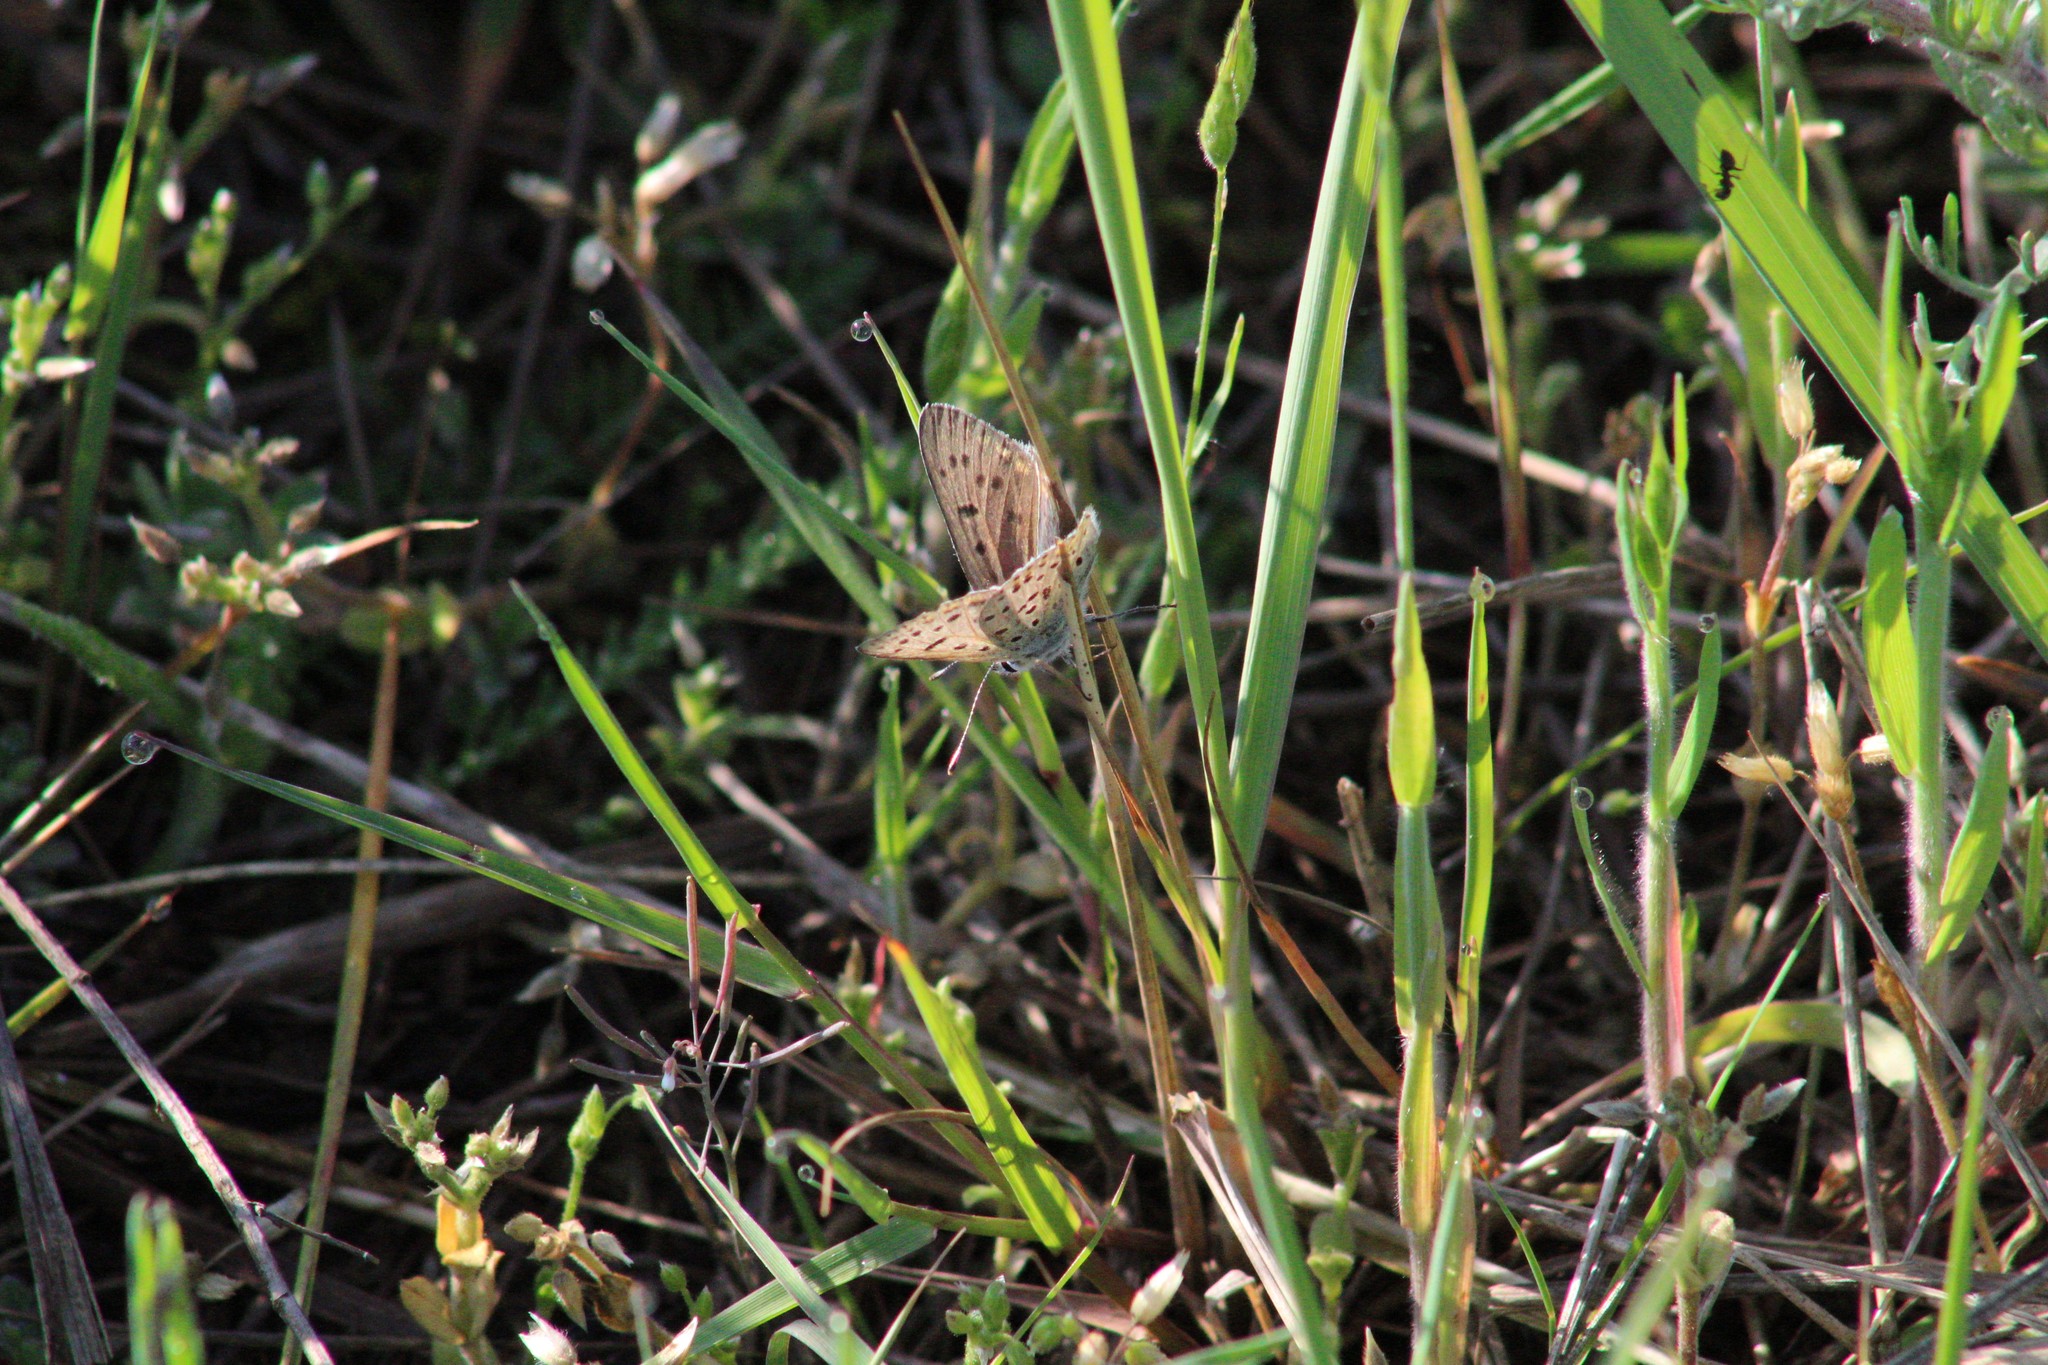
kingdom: Animalia
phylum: Arthropoda
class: Insecta
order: Lepidoptera
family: Lycaenidae
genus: Loweia
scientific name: Loweia tityrus
